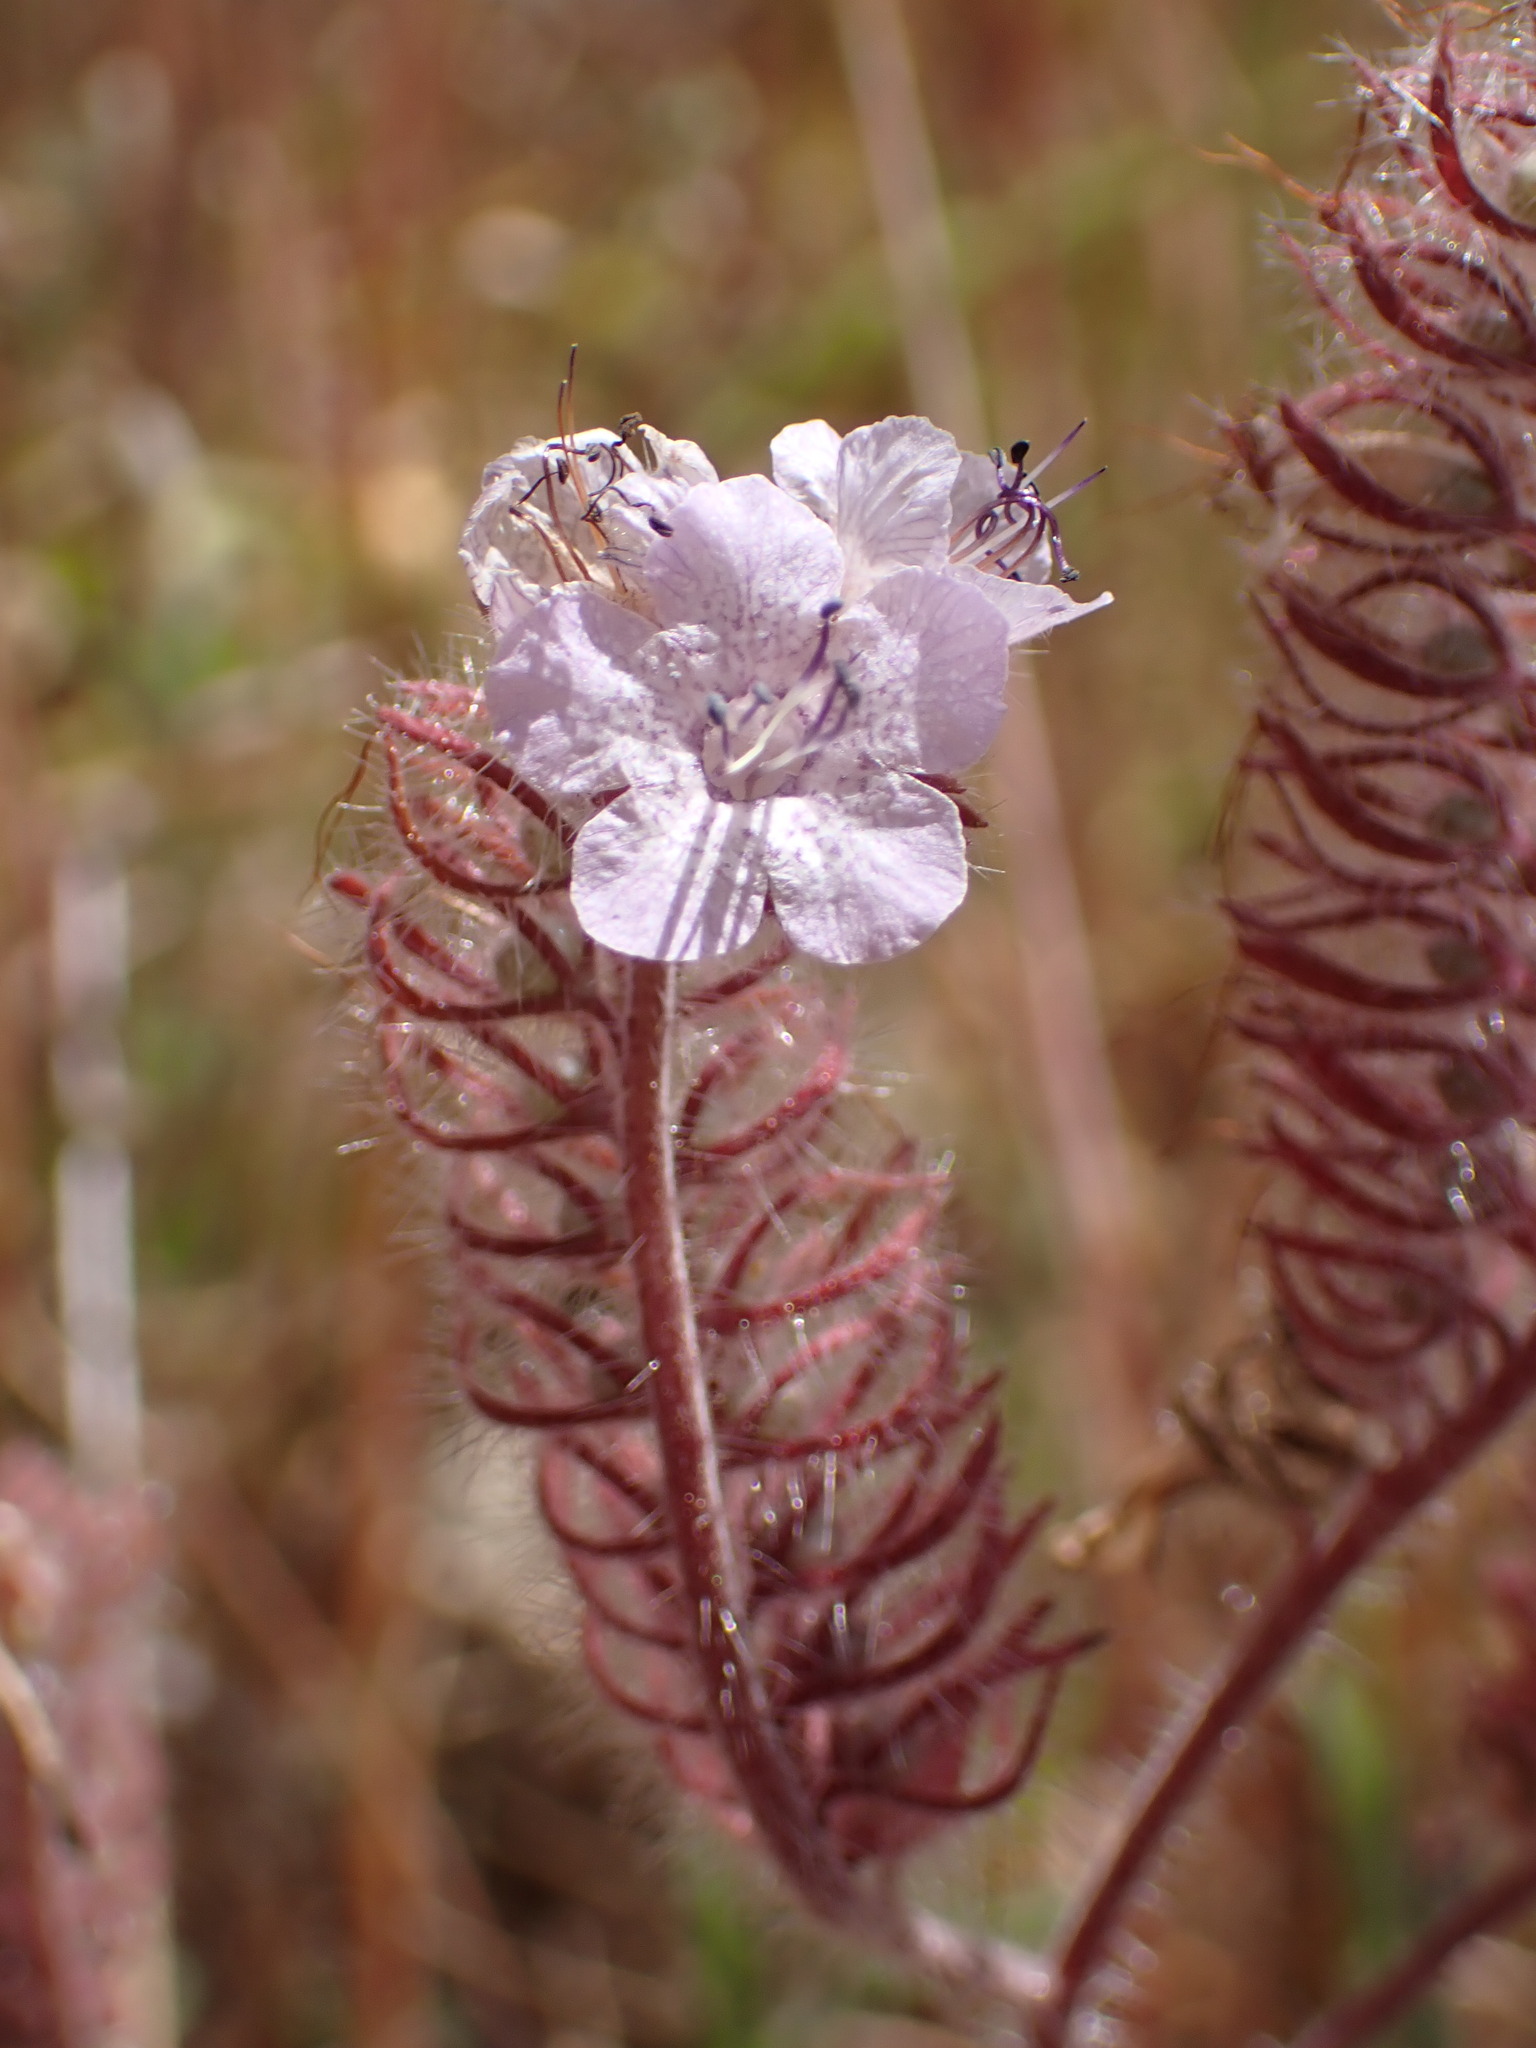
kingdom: Plantae
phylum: Tracheophyta
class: Magnoliopsida
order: Boraginales
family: Hydrophyllaceae
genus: Phacelia
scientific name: Phacelia cicutaria
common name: Caterpillar phacelia
